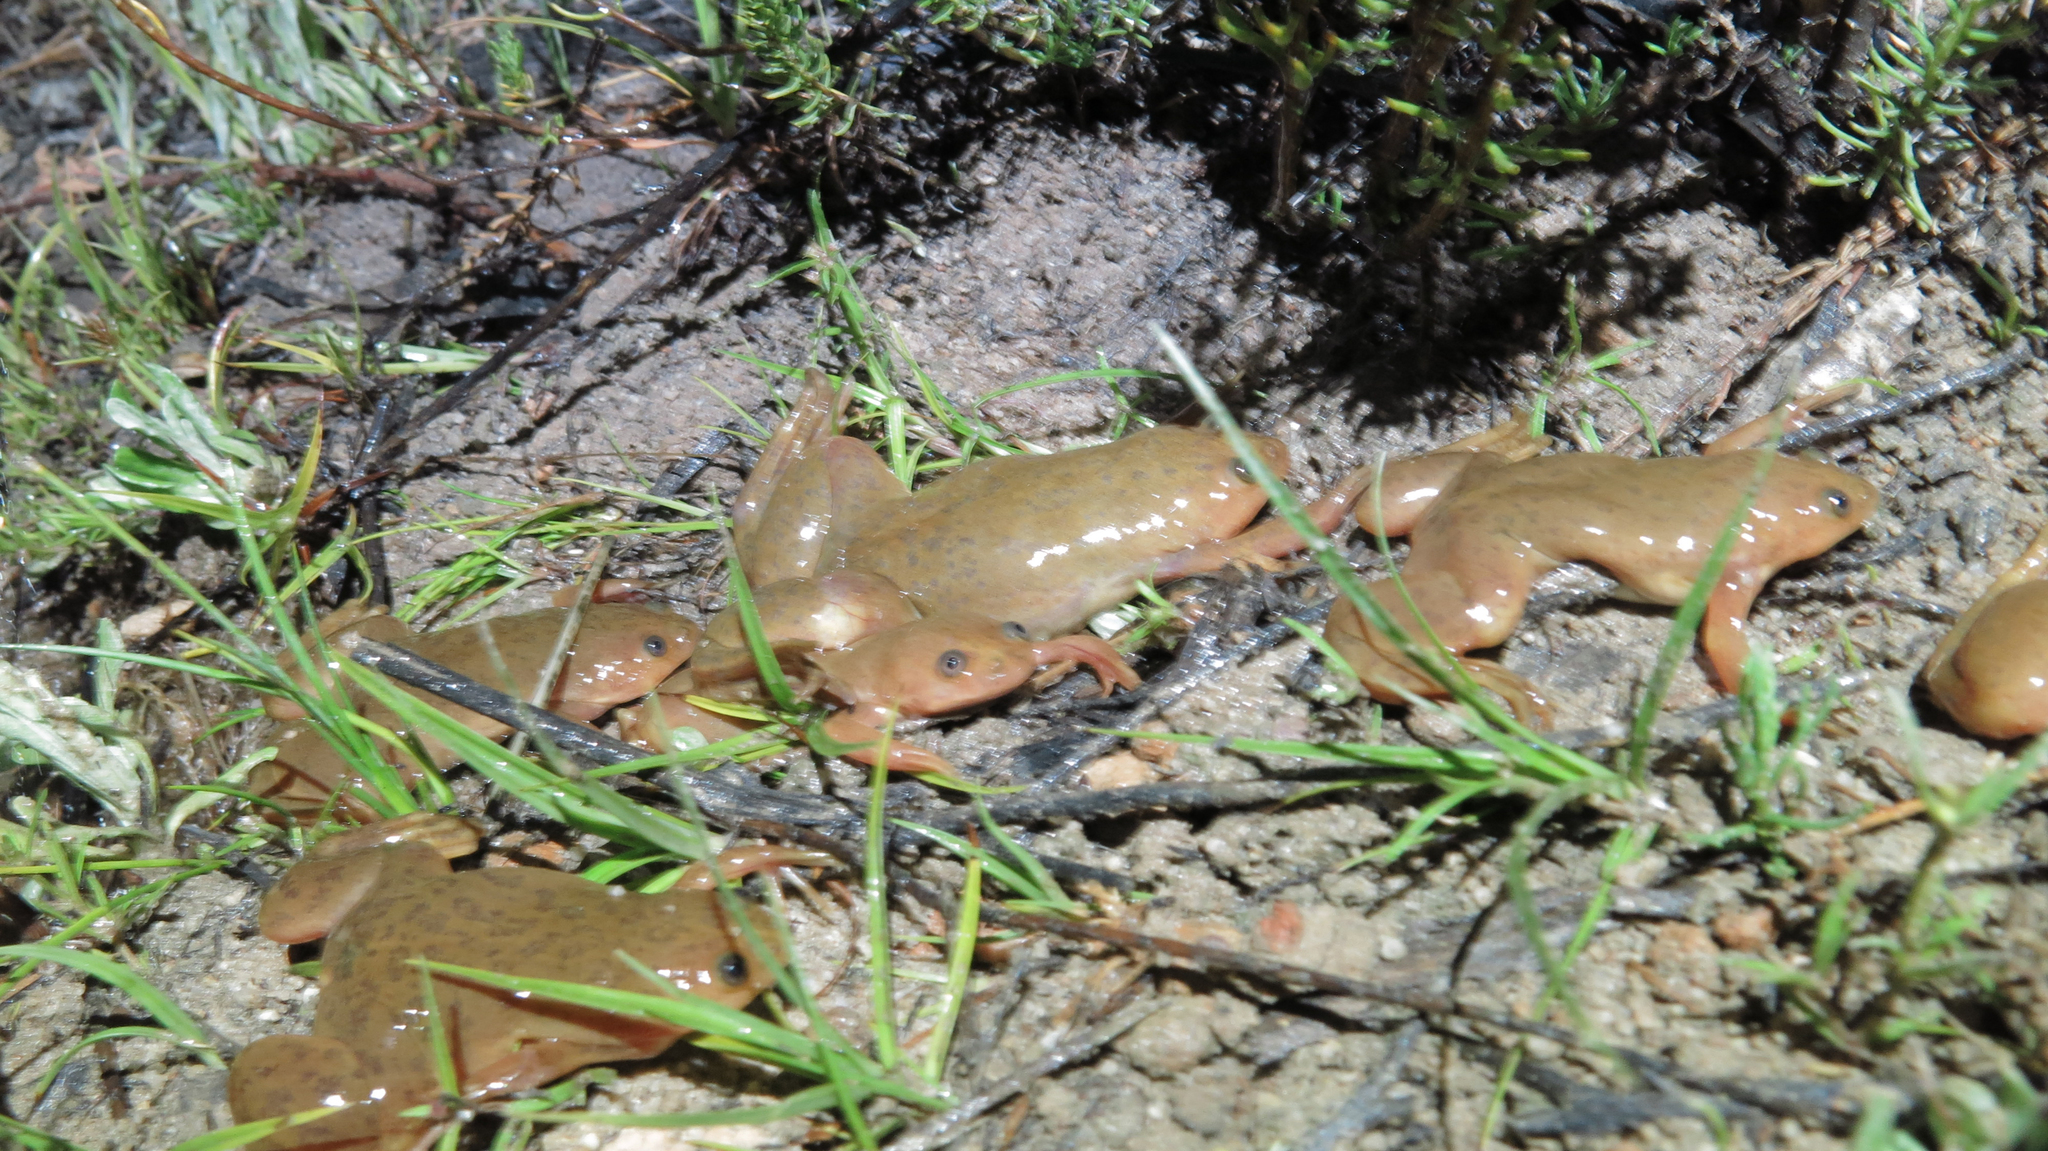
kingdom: Animalia
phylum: Chordata
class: Amphibia
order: Anura
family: Pipidae
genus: Xenopus
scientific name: Xenopus laevis
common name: African clawed frog
